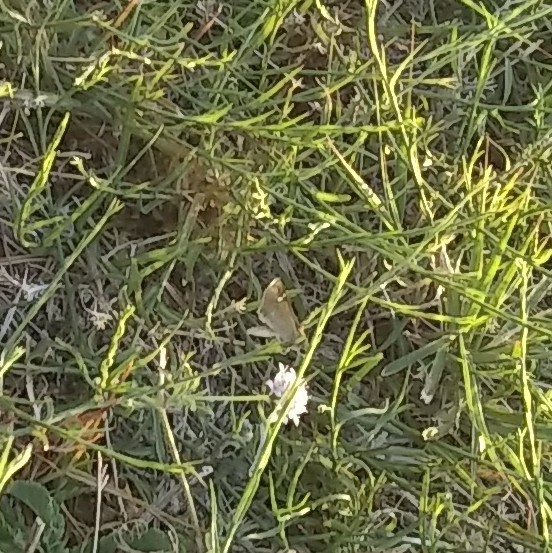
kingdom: Animalia
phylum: Arthropoda
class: Insecta
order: Lepidoptera
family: Hesperiidae
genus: Lerodea
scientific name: Lerodea eufala
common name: Eufala skipper
